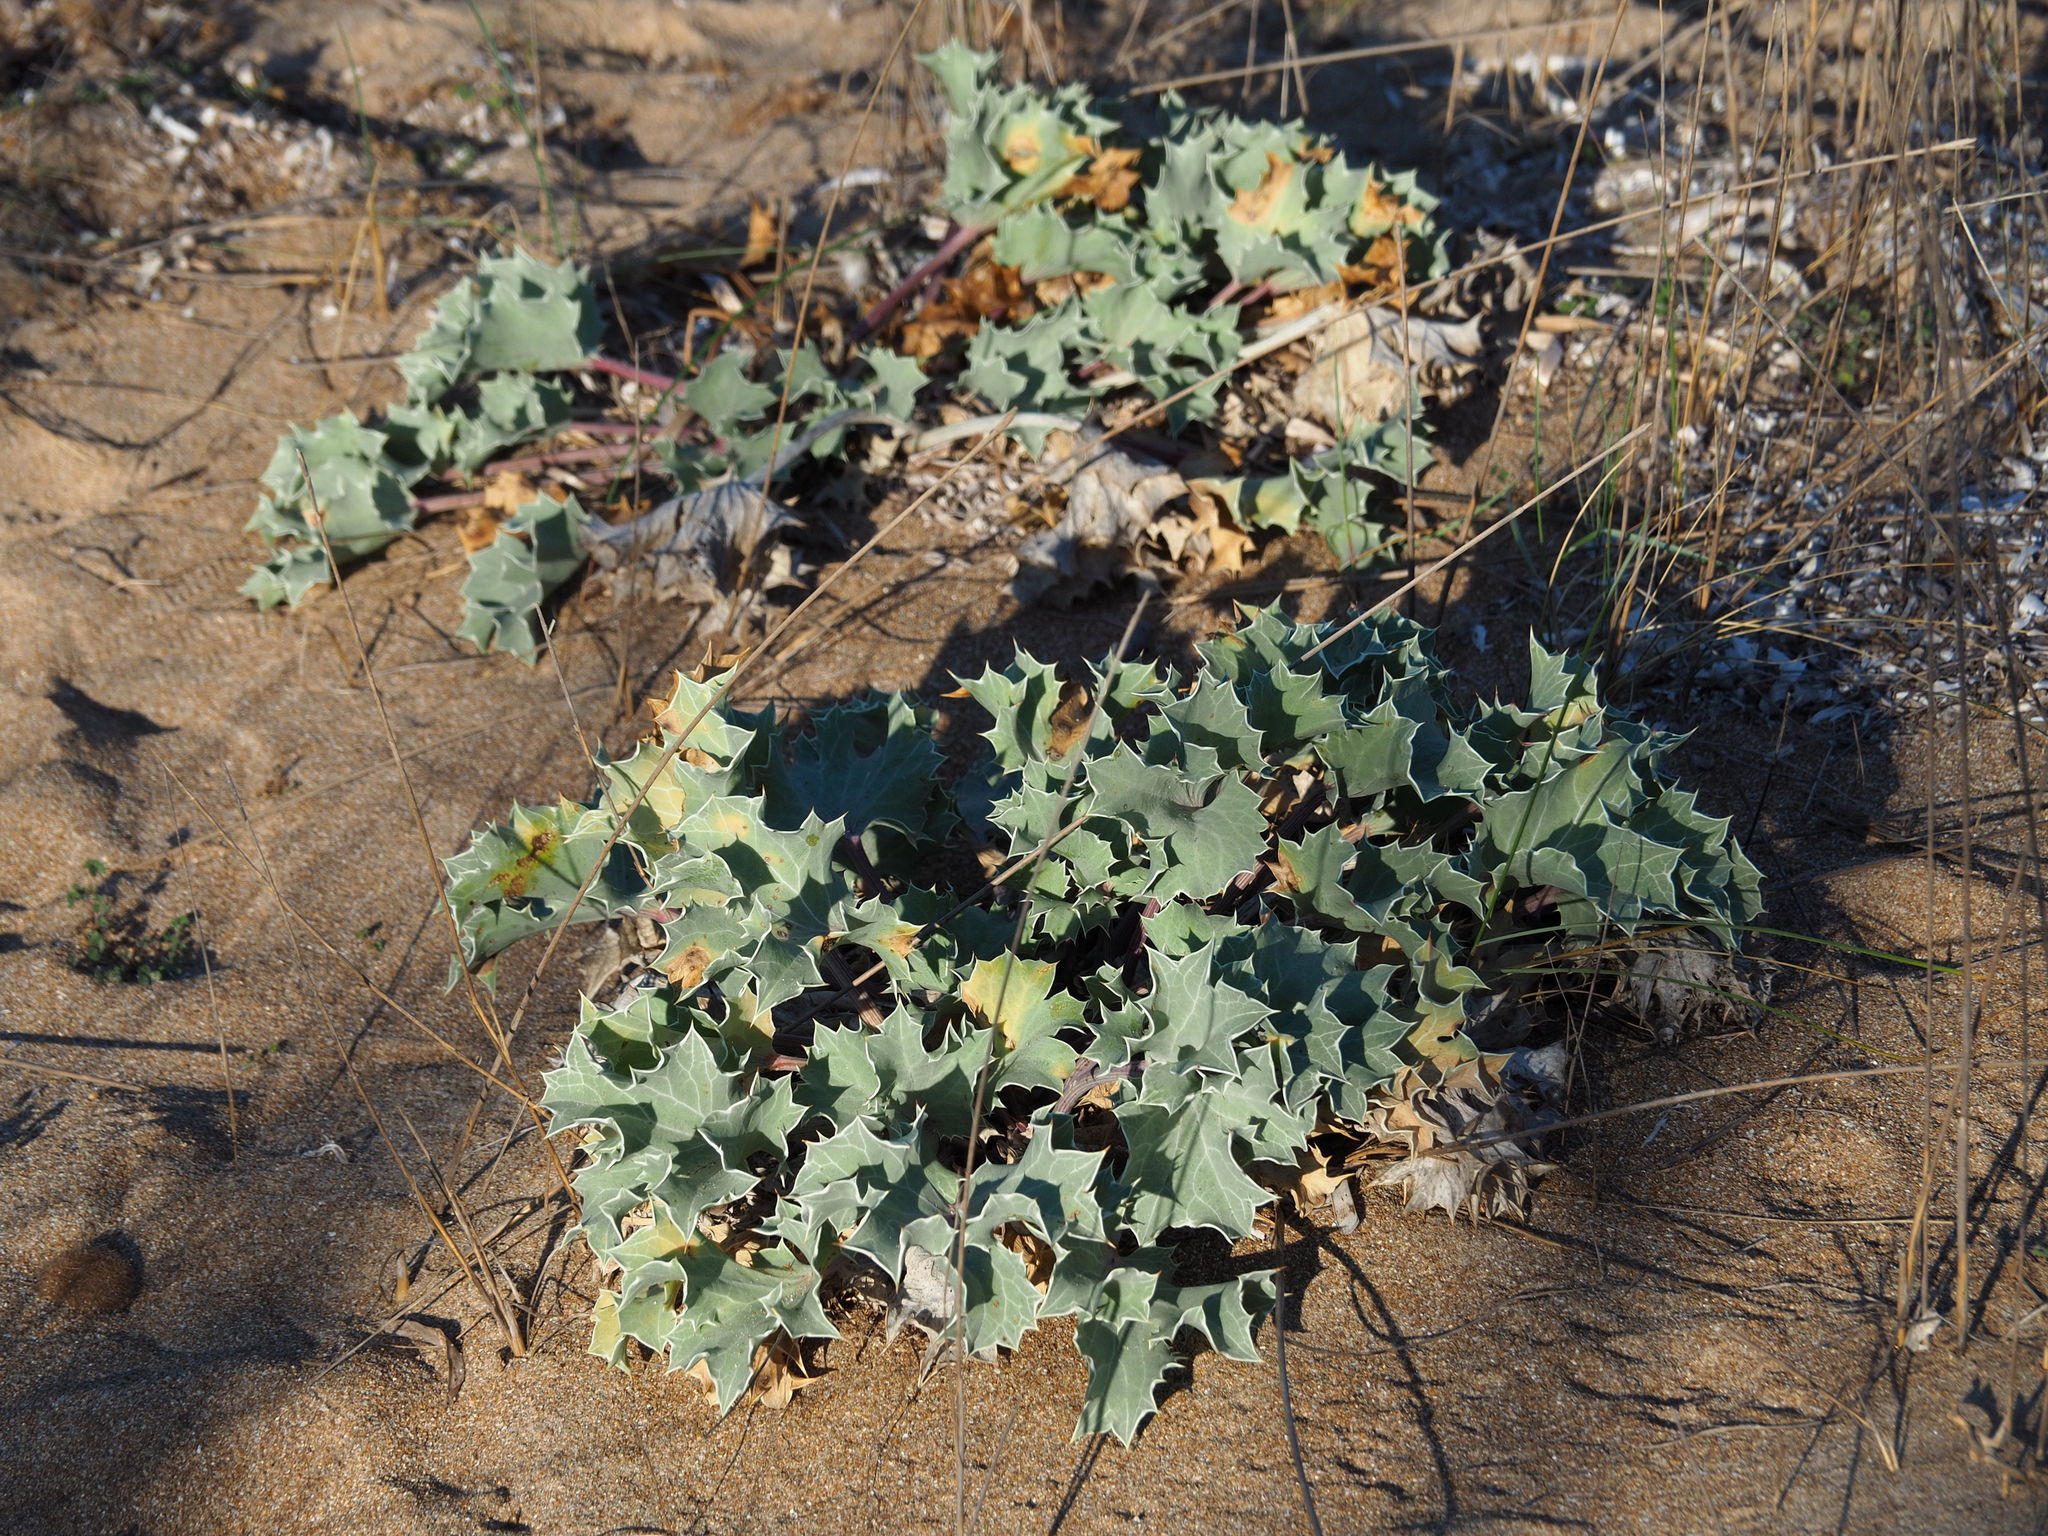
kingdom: Plantae
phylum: Tracheophyta
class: Magnoliopsida
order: Apiales
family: Apiaceae
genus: Eryngium
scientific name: Eryngium maritimum
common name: Sea-holly
